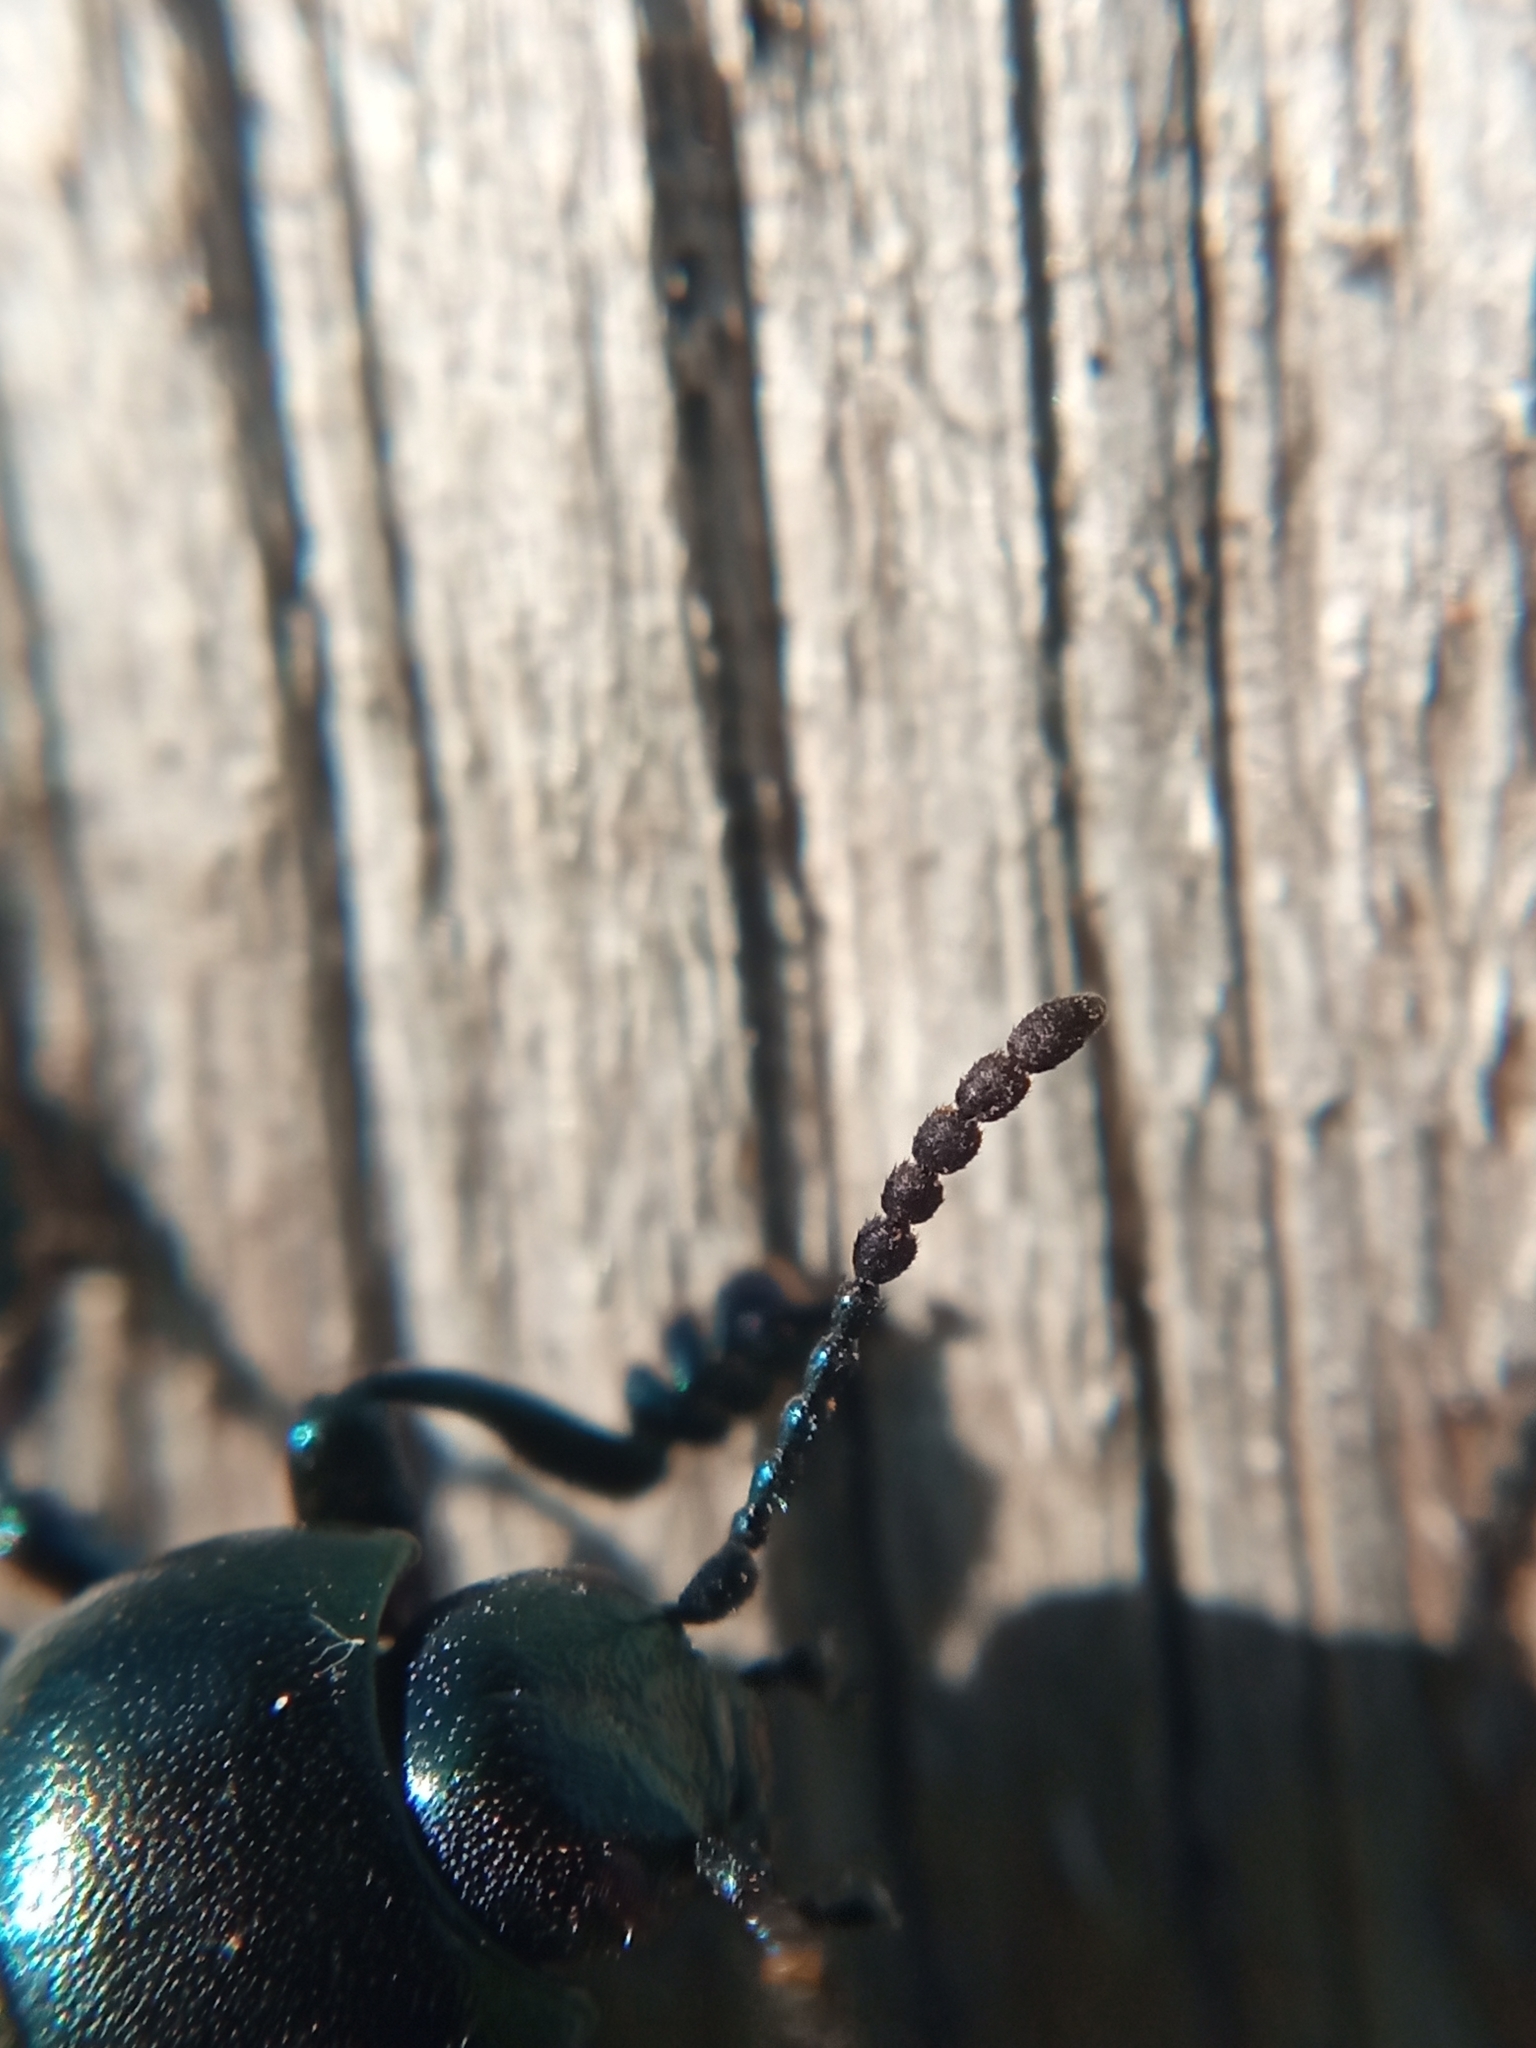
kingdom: Animalia
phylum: Arthropoda
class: Insecta
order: Coleoptera
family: Chrysomelidae
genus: Timarcha
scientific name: Timarcha goettingensis
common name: Small bloody-nosed beetle
